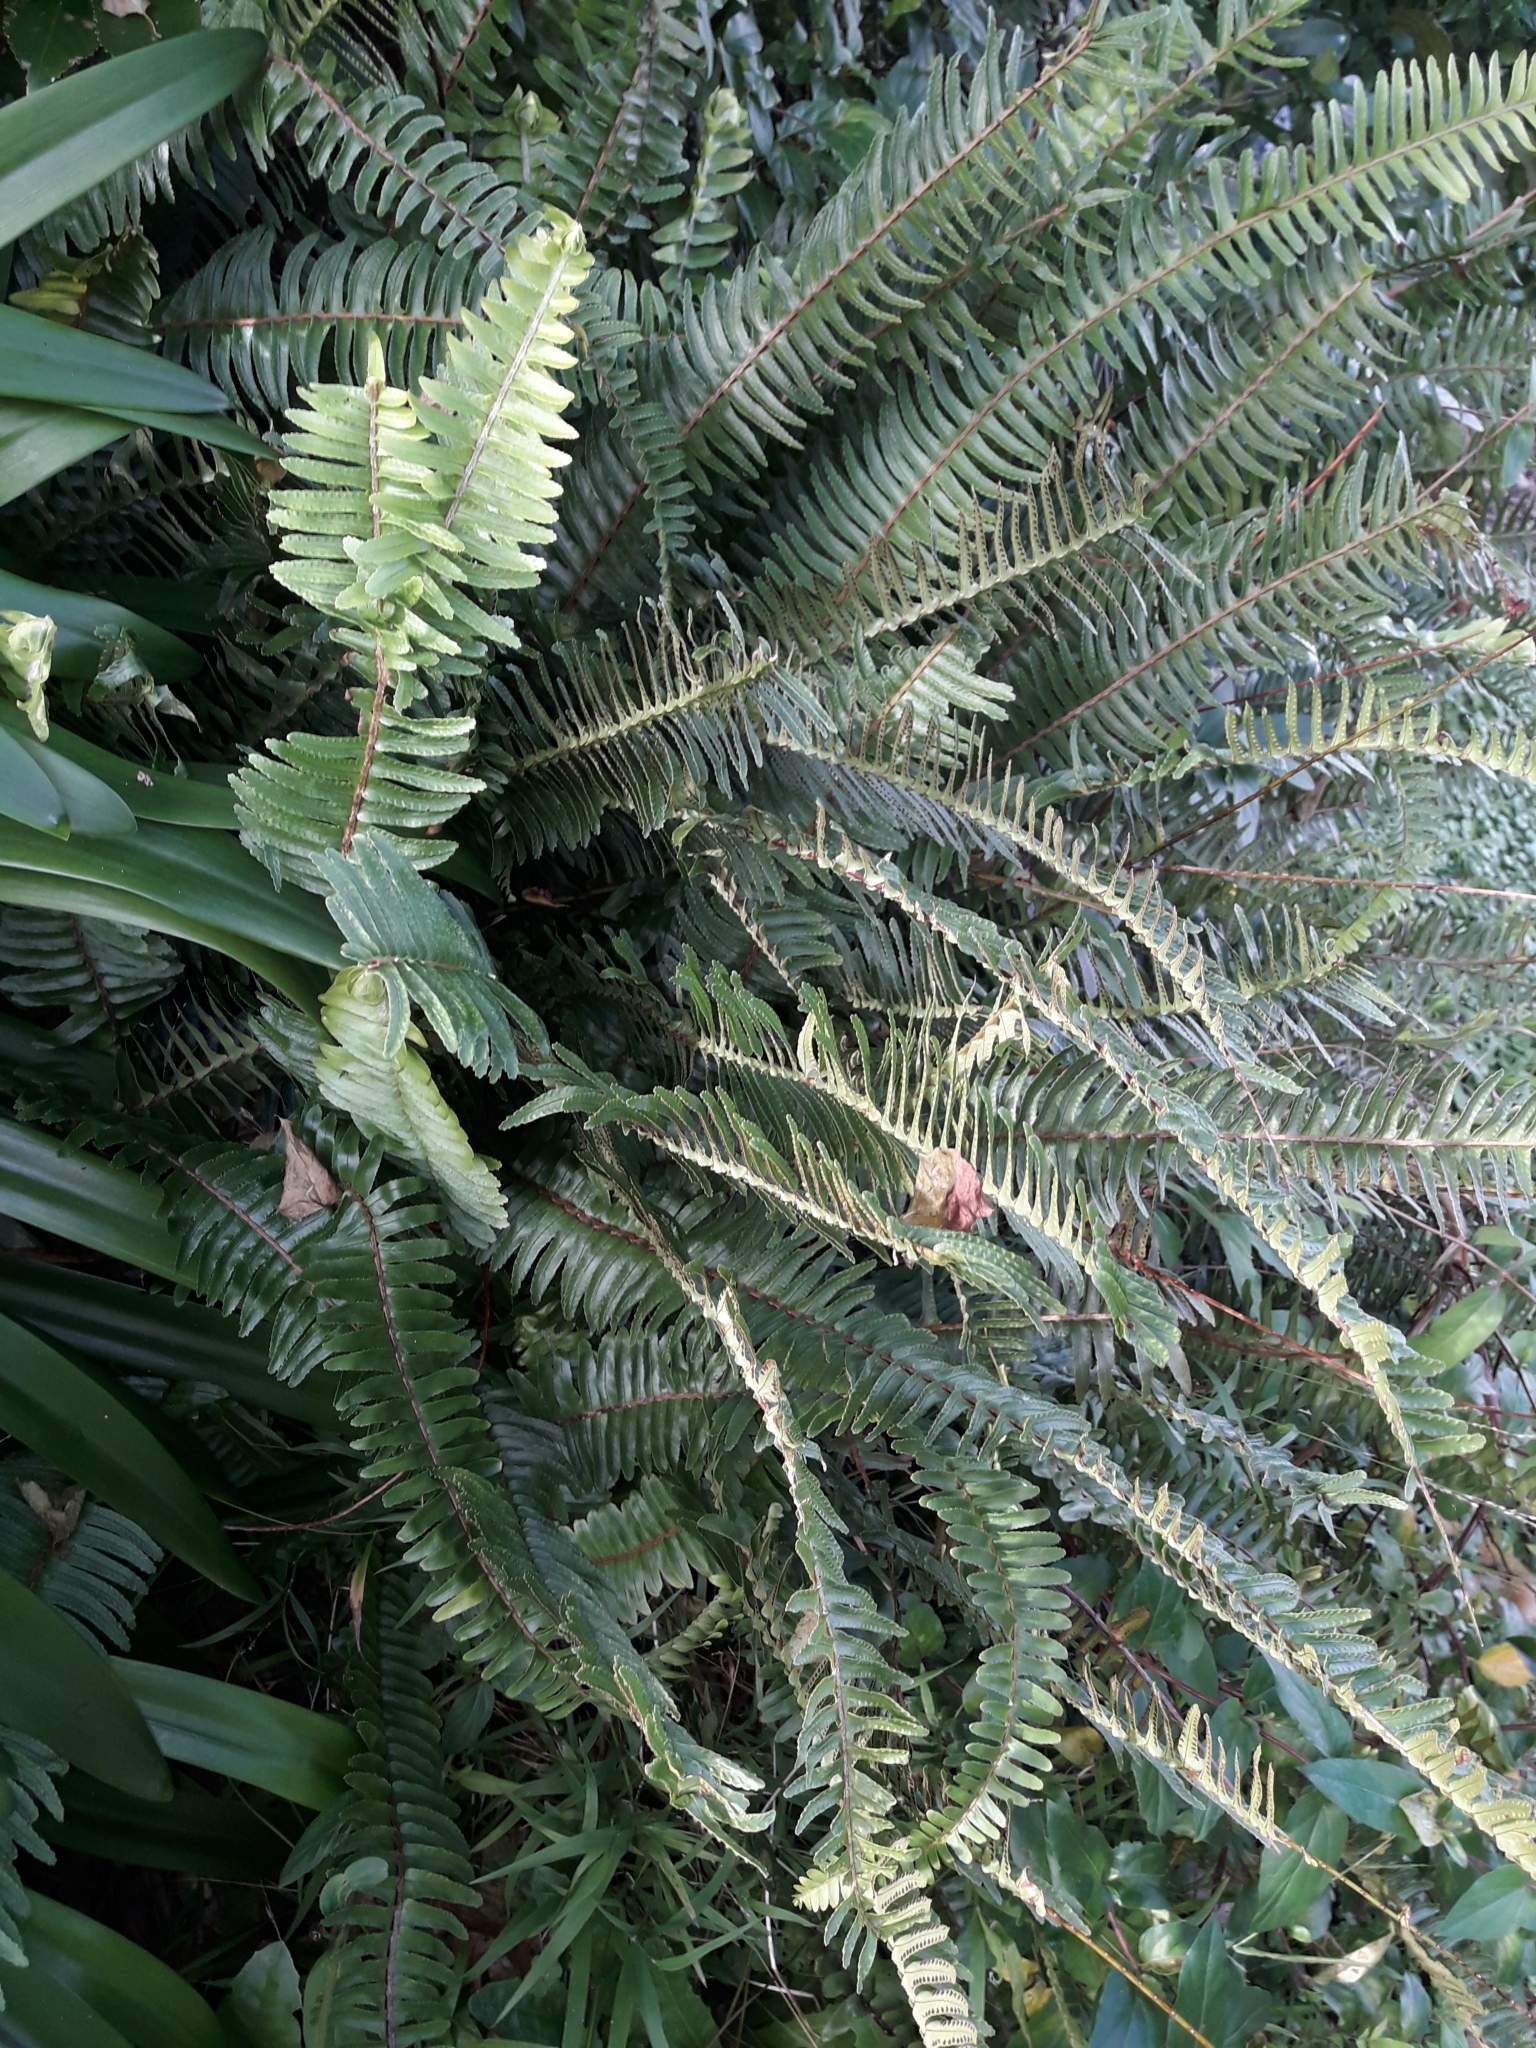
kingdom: Plantae
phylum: Tracheophyta
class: Polypodiopsida
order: Polypodiales
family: Nephrolepidaceae
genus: Nephrolepis
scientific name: Nephrolepis cordifolia
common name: Narrow swordfern
